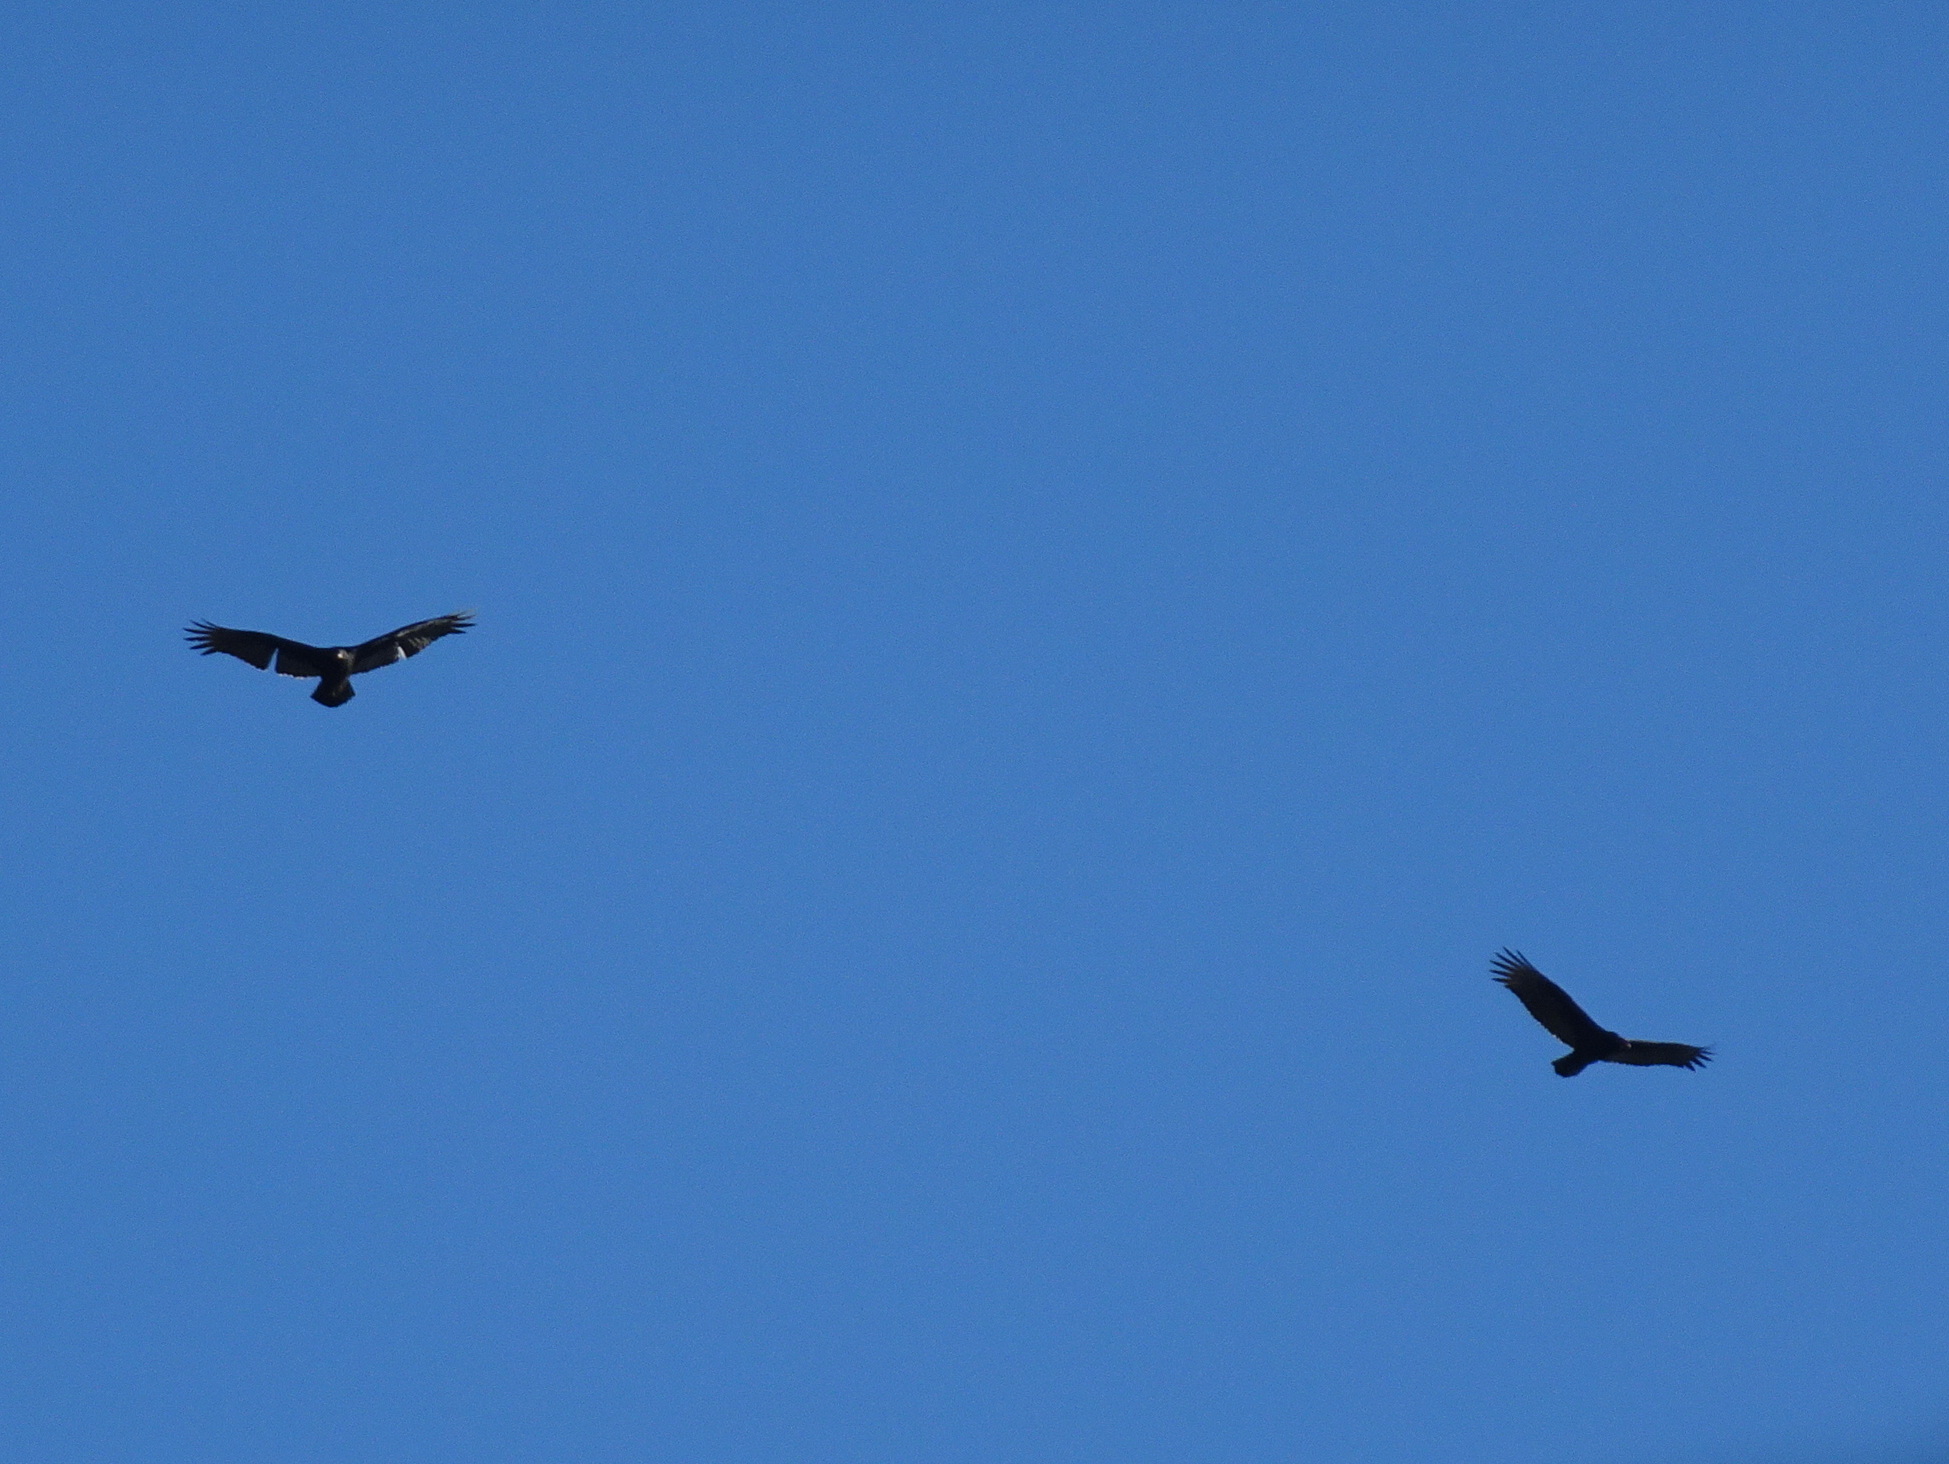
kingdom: Animalia
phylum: Chordata
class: Aves
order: Accipitriformes
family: Cathartidae
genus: Cathartes
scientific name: Cathartes aura
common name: Turkey vulture
